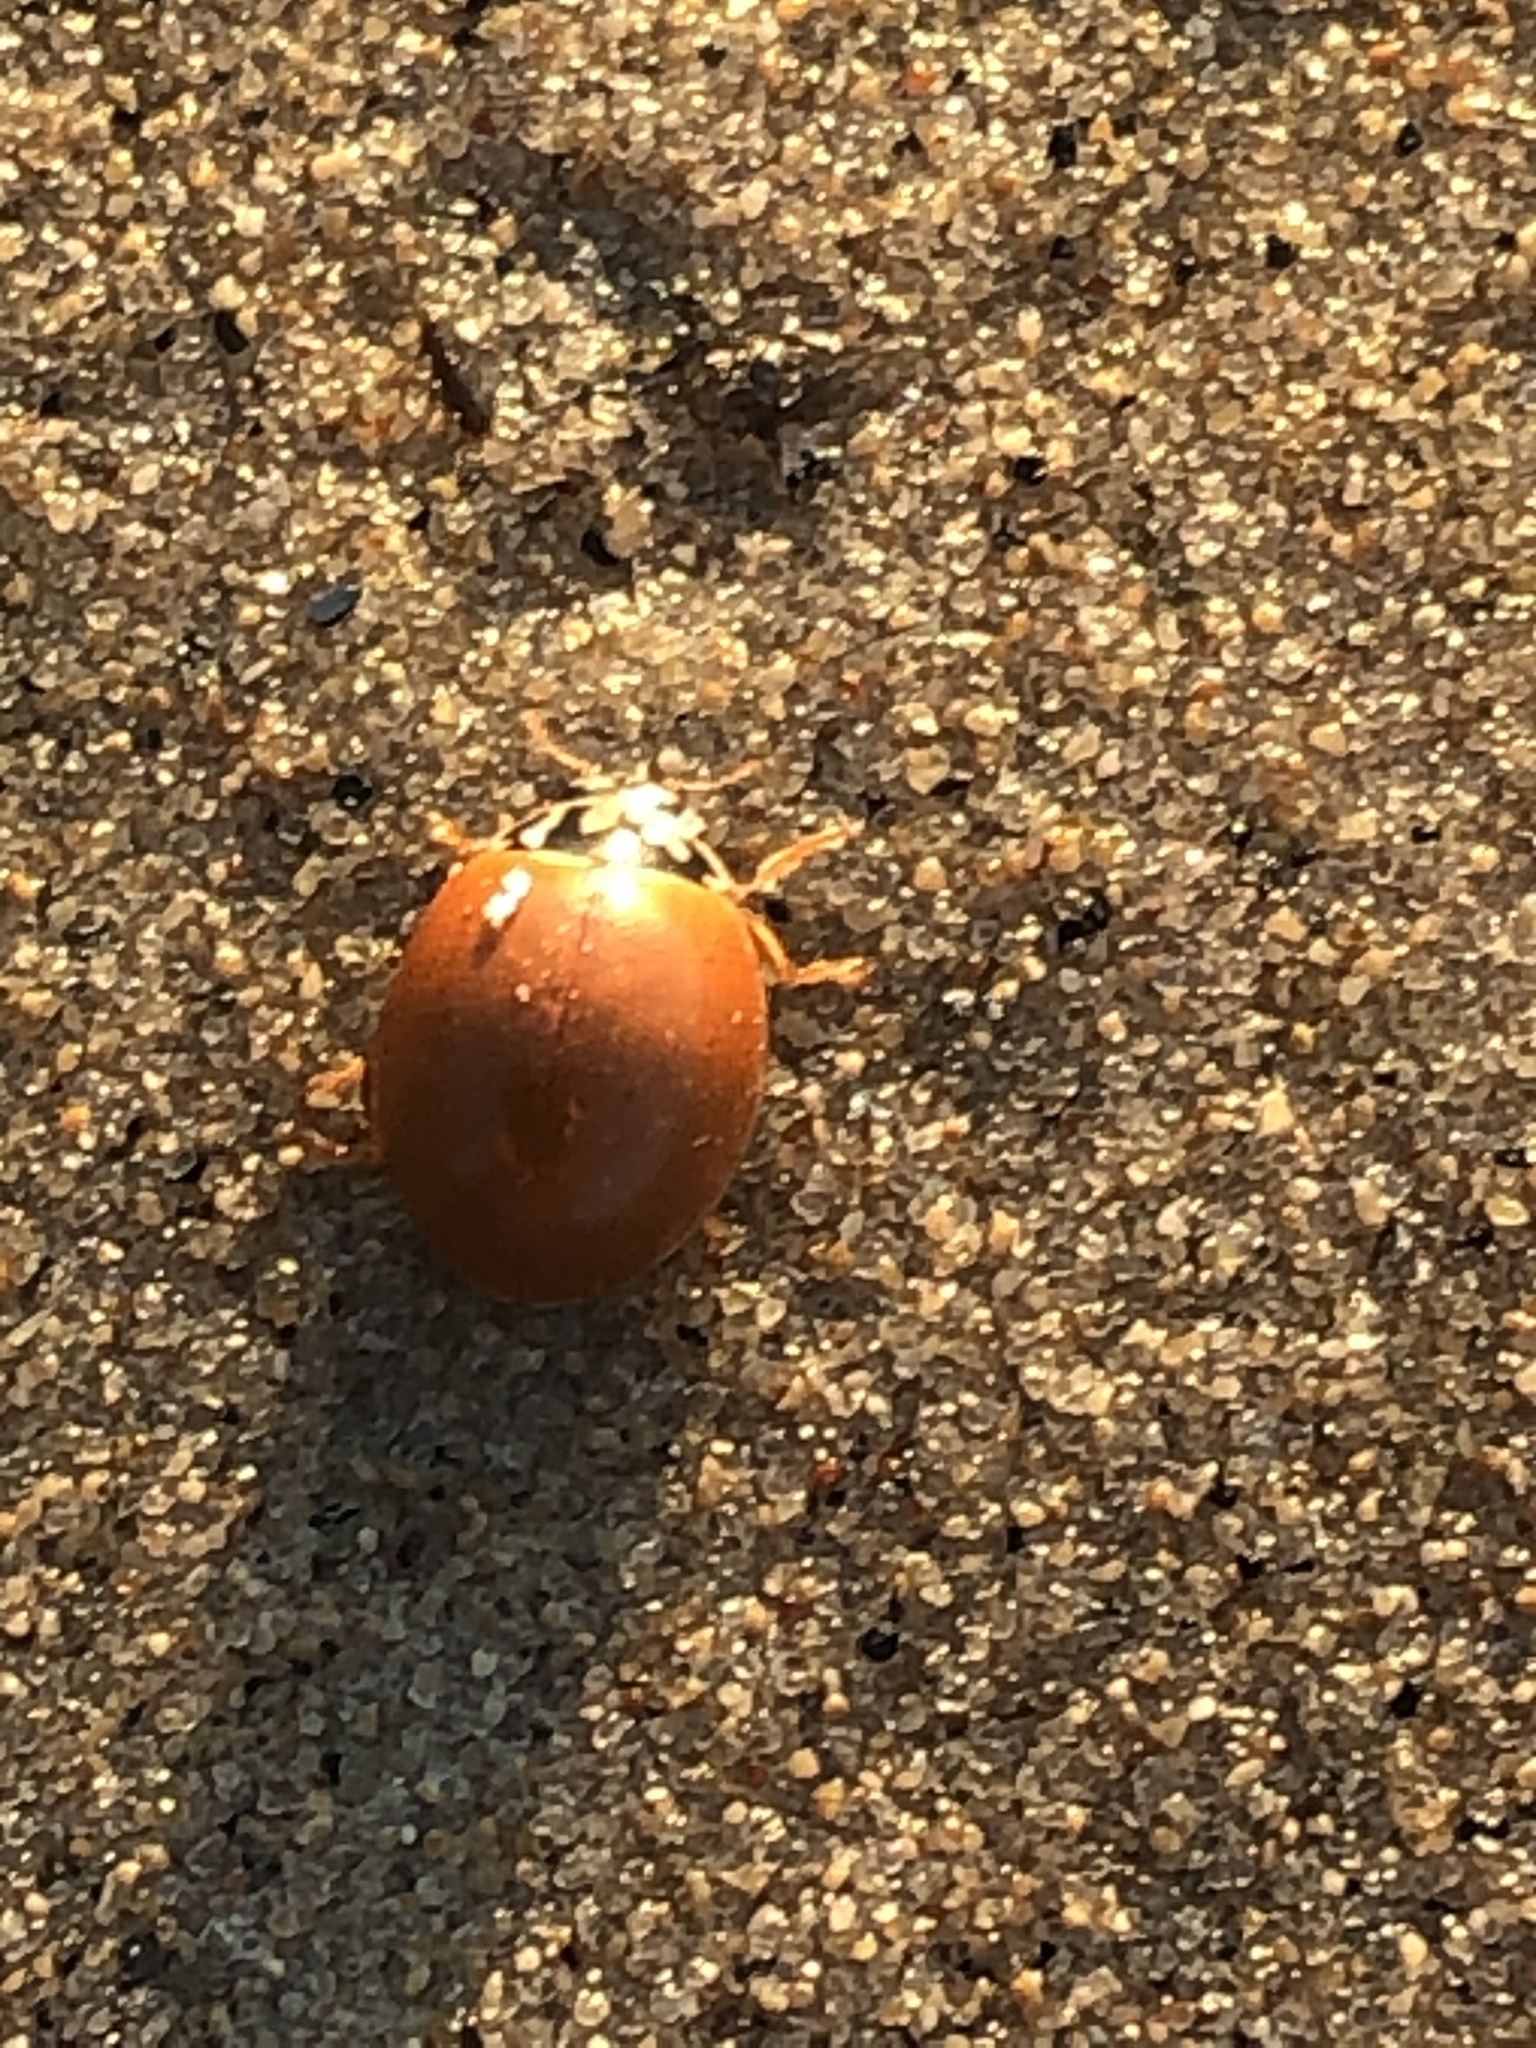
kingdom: Animalia
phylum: Arthropoda
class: Insecta
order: Coleoptera
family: Coccinellidae
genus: Cycloneda
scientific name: Cycloneda munda
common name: Polished lady beetle
